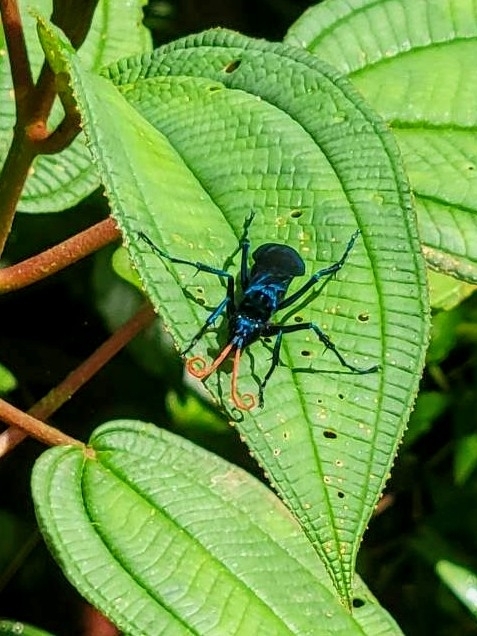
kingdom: Animalia
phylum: Arthropoda
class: Insecta
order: Hymenoptera
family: Pompilidae
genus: Pepsis
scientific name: Pepsis ruficornis
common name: Orange-horned tarantula hawk
